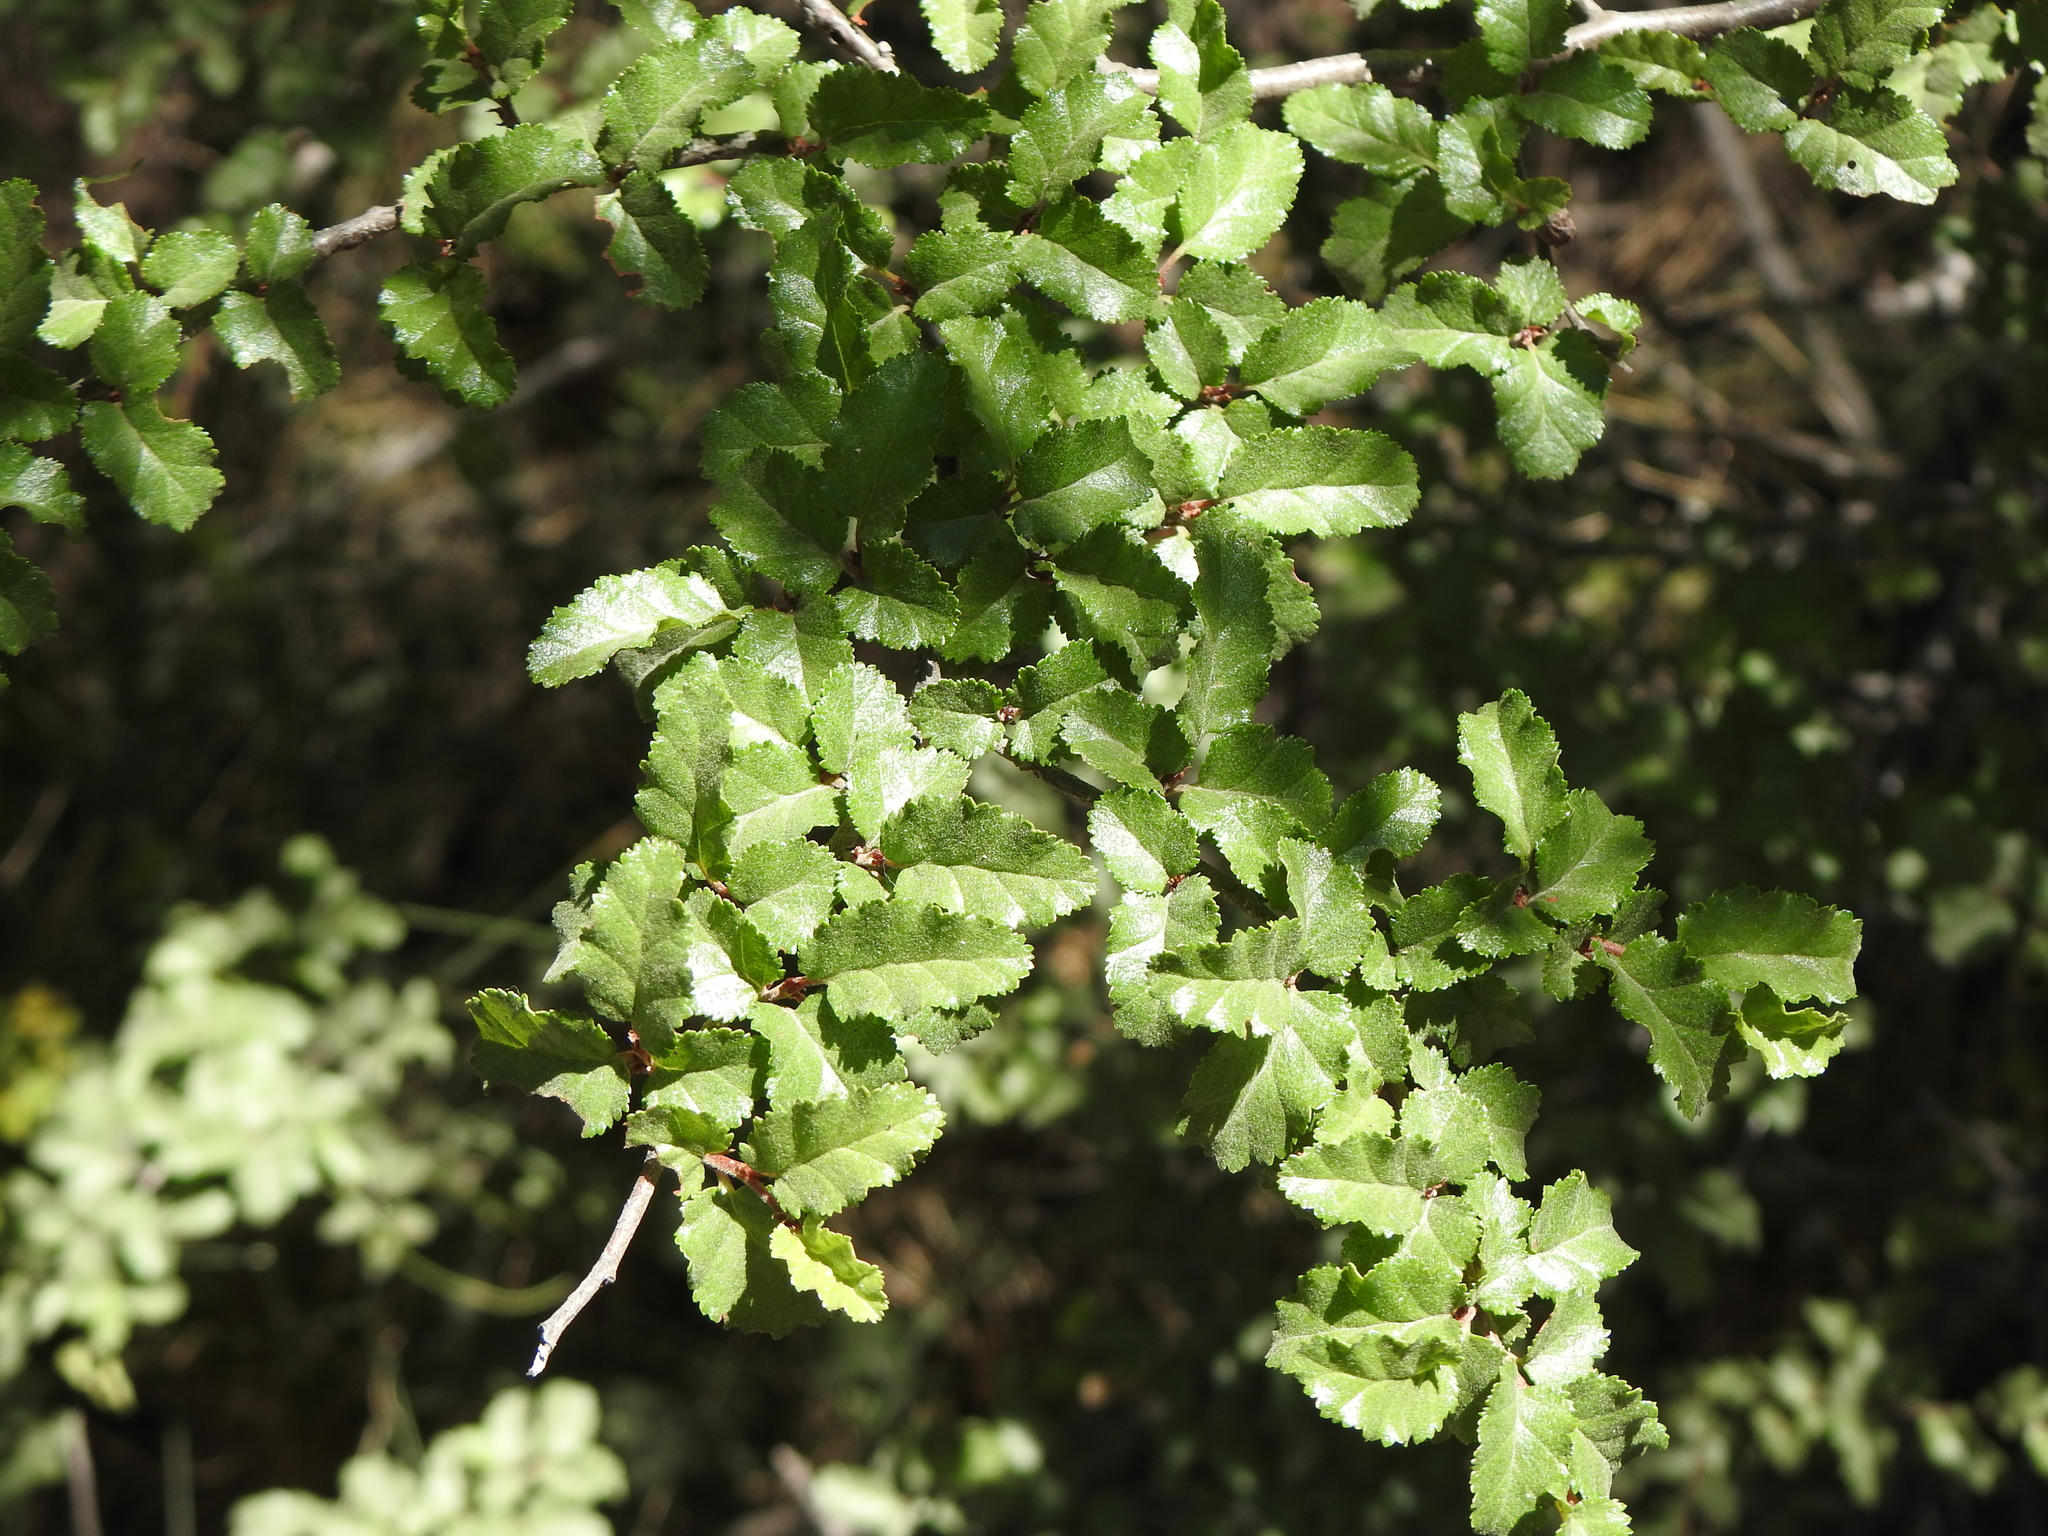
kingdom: Plantae
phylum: Tracheophyta
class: Magnoliopsida
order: Fagales
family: Nothofagaceae
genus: Nothofagus
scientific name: Nothofagus antarctica
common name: Antarctic beech
